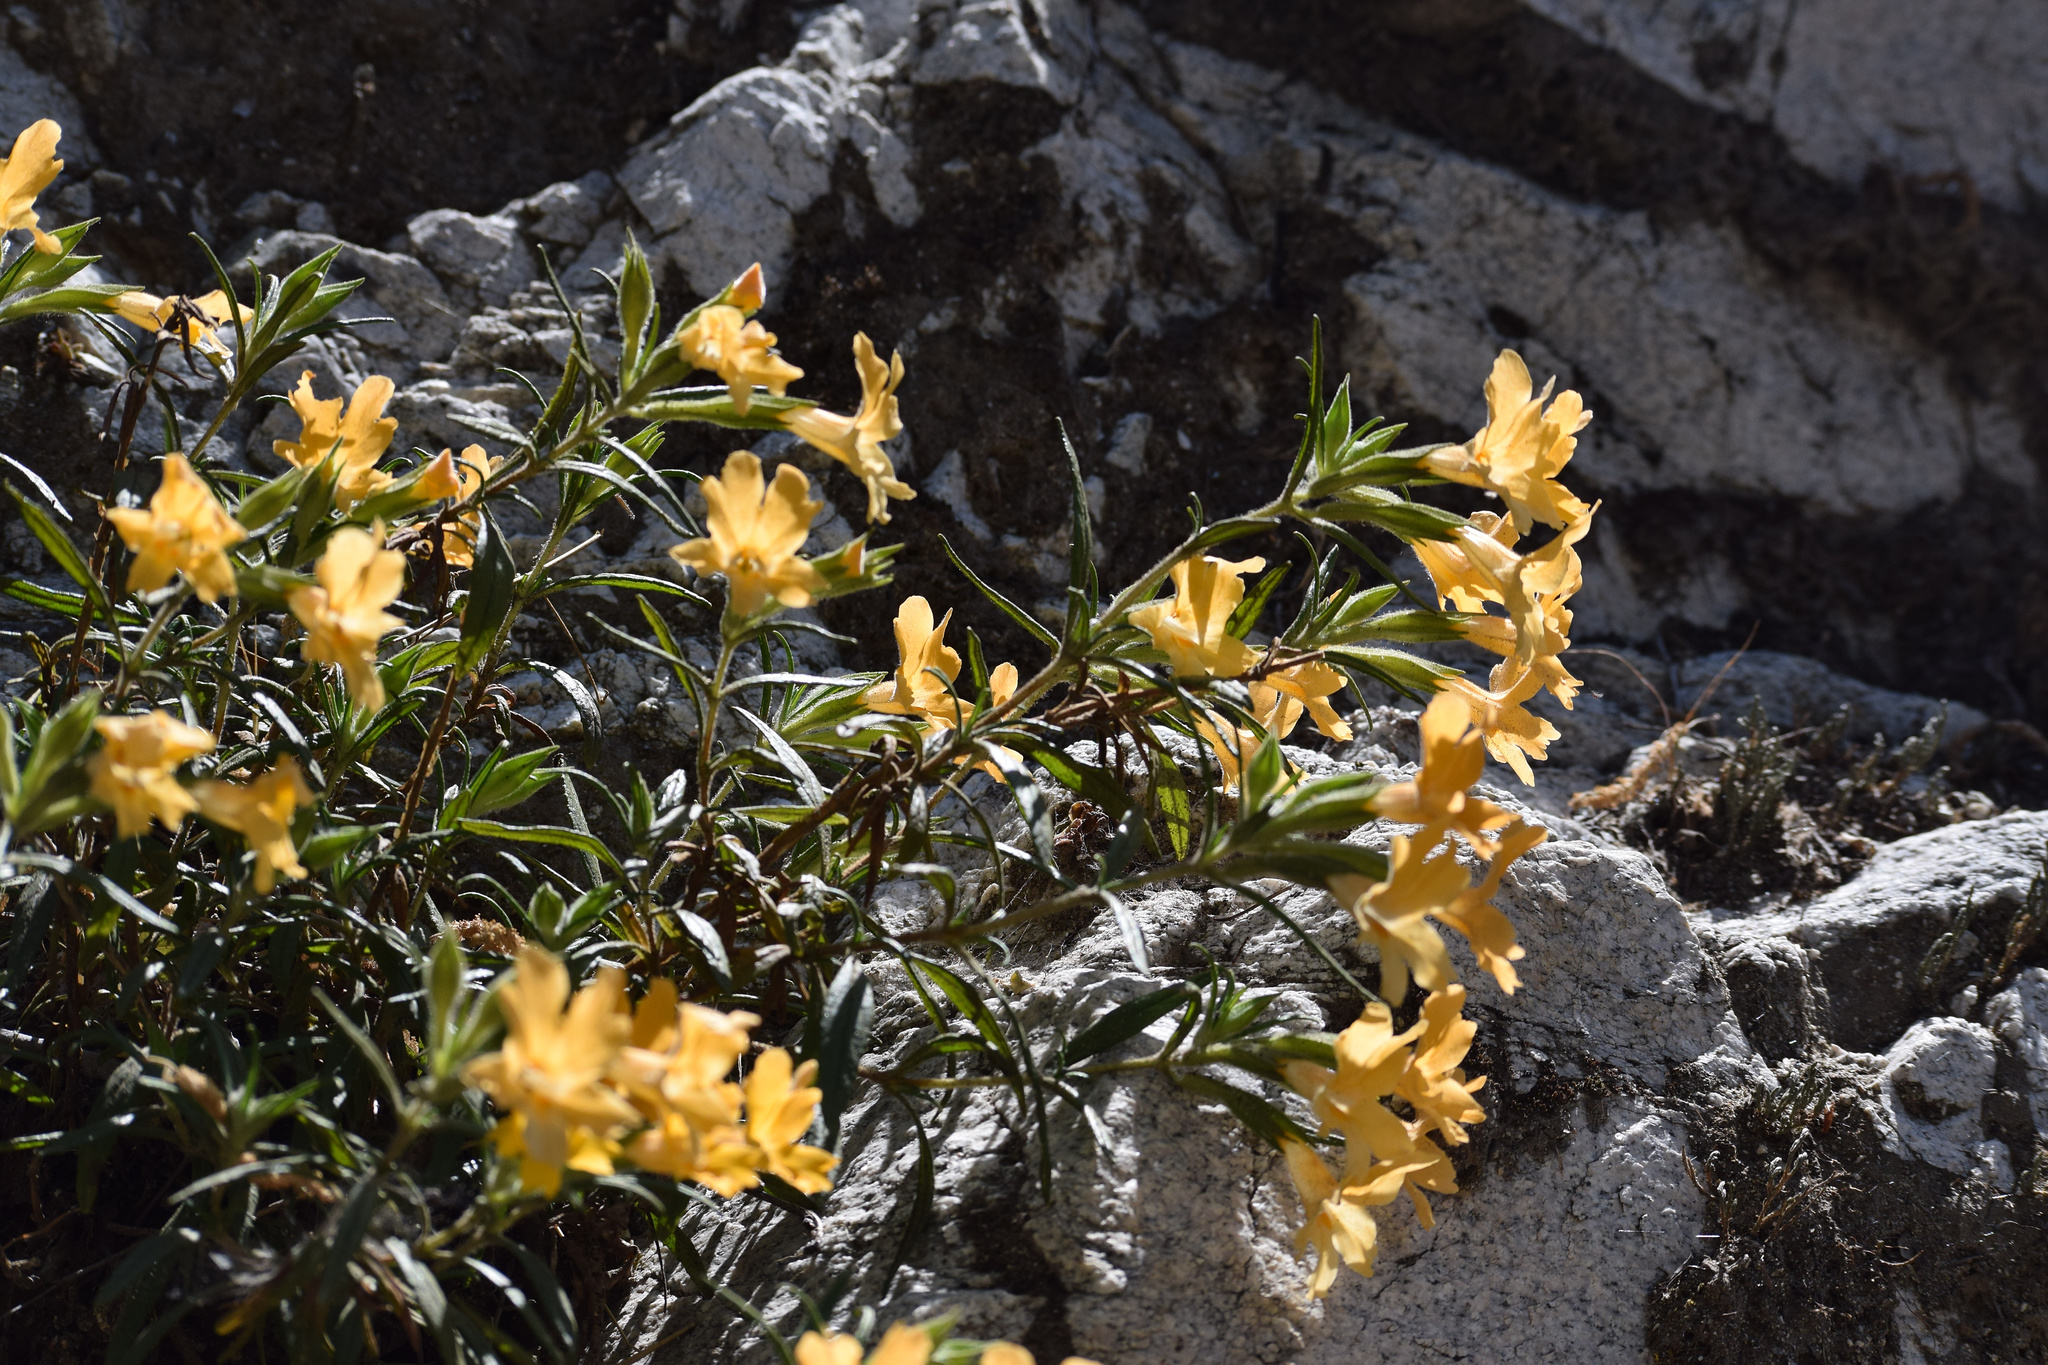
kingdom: Plantae
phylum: Tracheophyta
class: Magnoliopsida
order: Lamiales
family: Phrymaceae
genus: Diplacus
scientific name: Diplacus longiflorus
